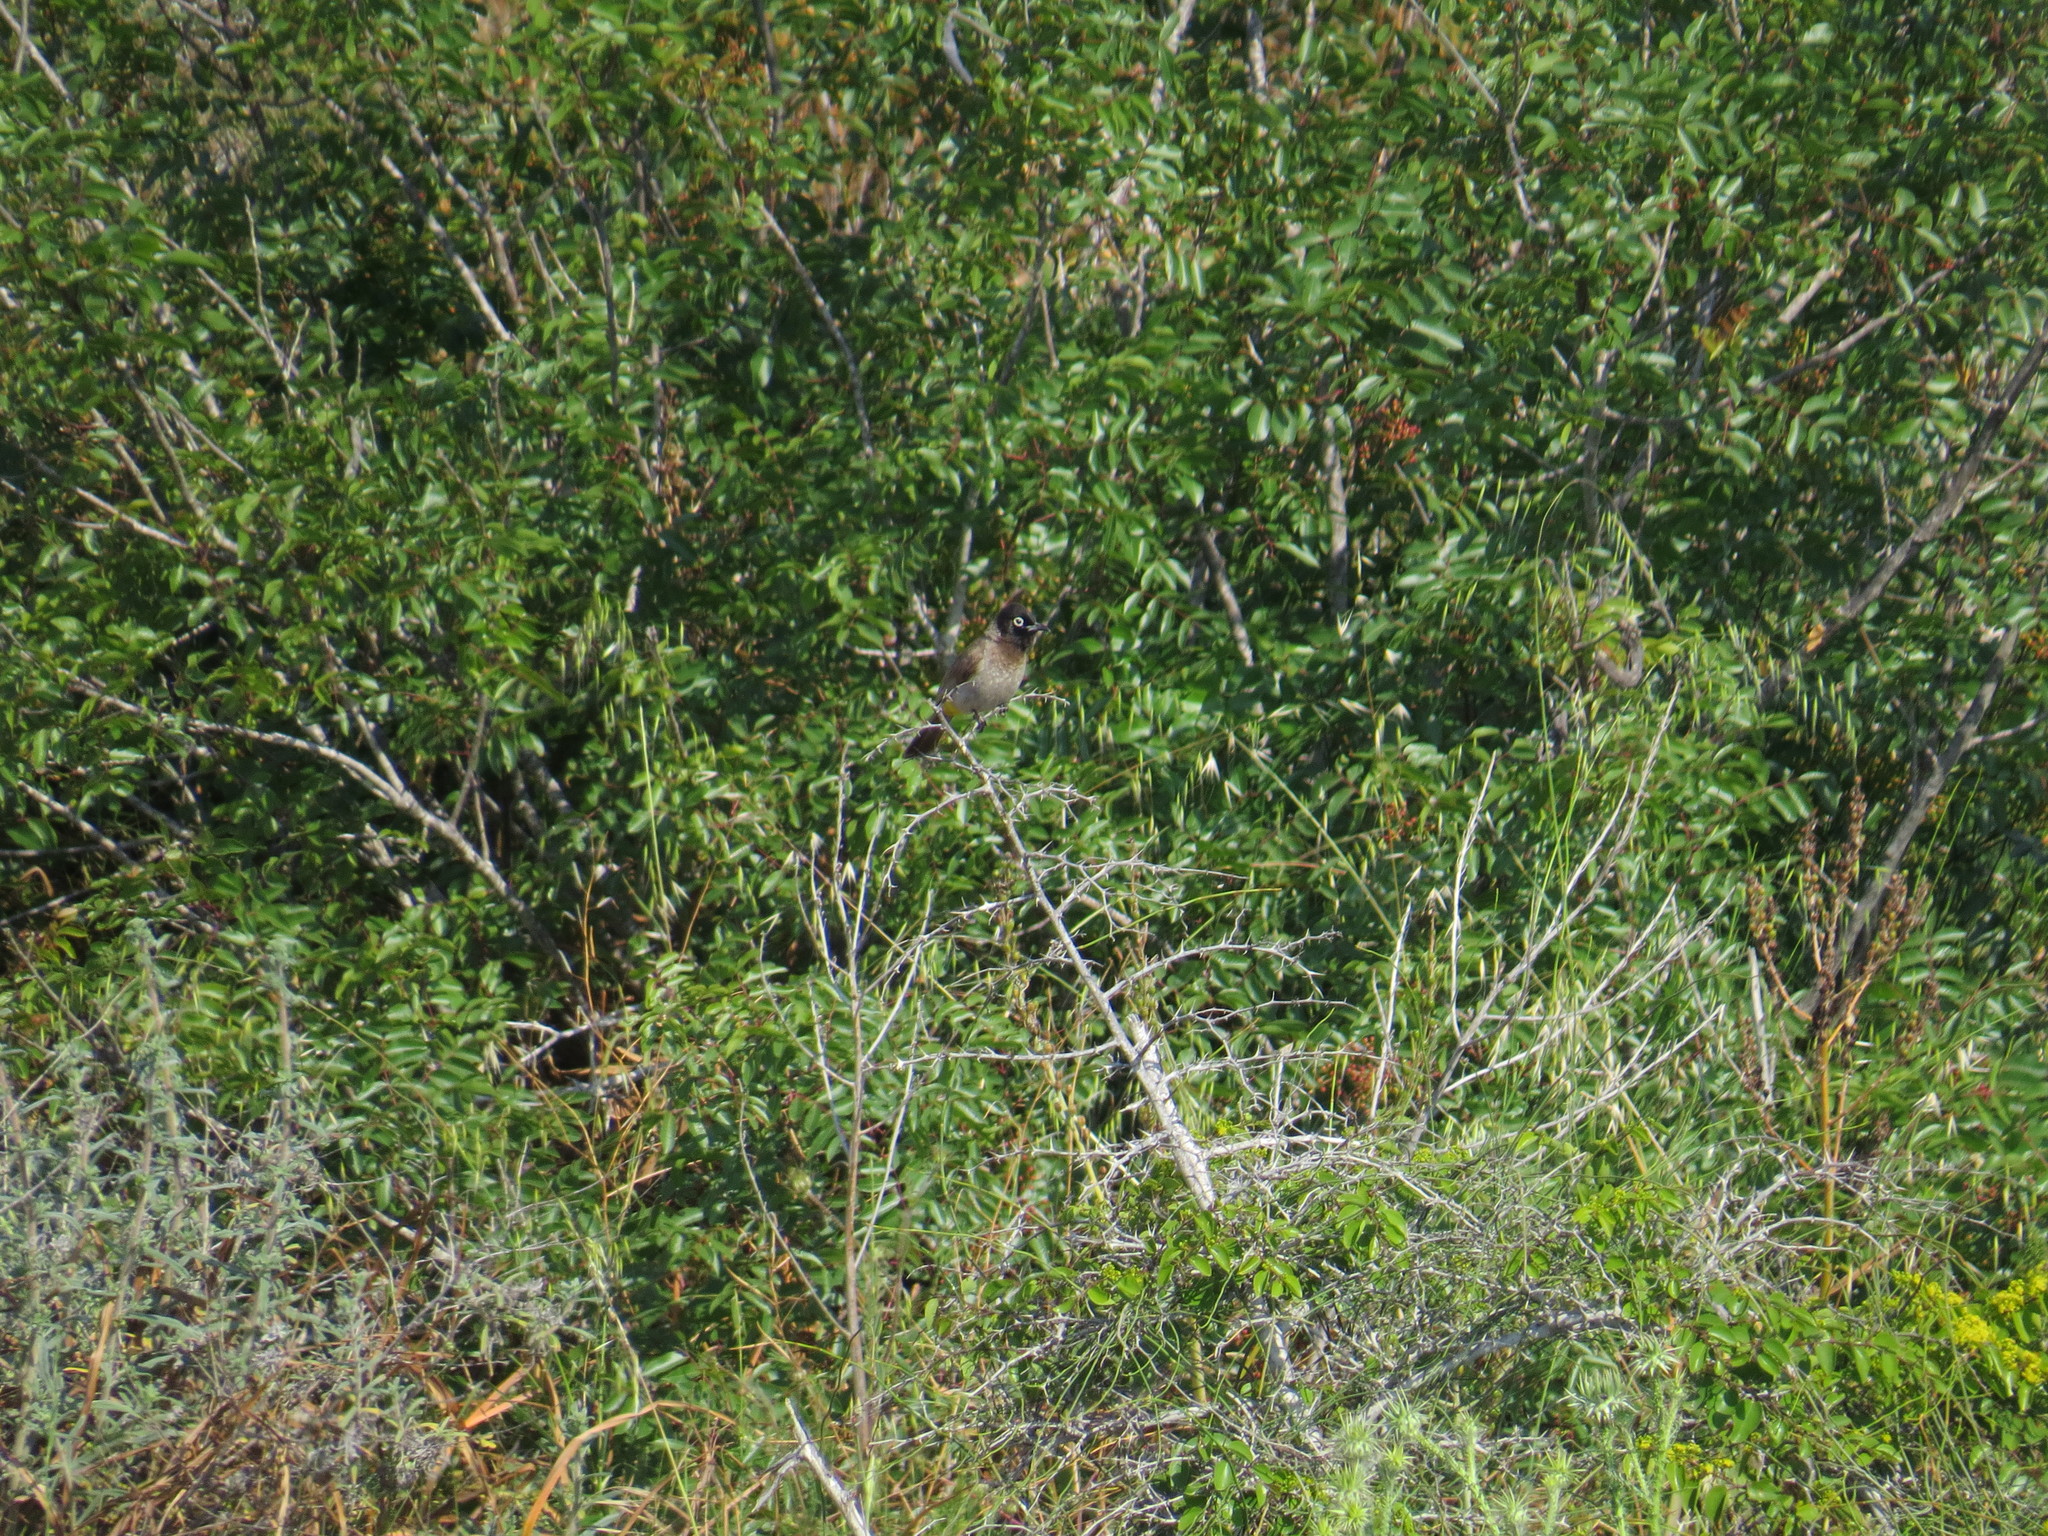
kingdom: Animalia
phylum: Chordata
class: Aves
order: Passeriformes
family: Pycnonotidae
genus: Pycnonotus
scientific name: Pycnonotus xanthopygos
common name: White-spectacled bulbul
